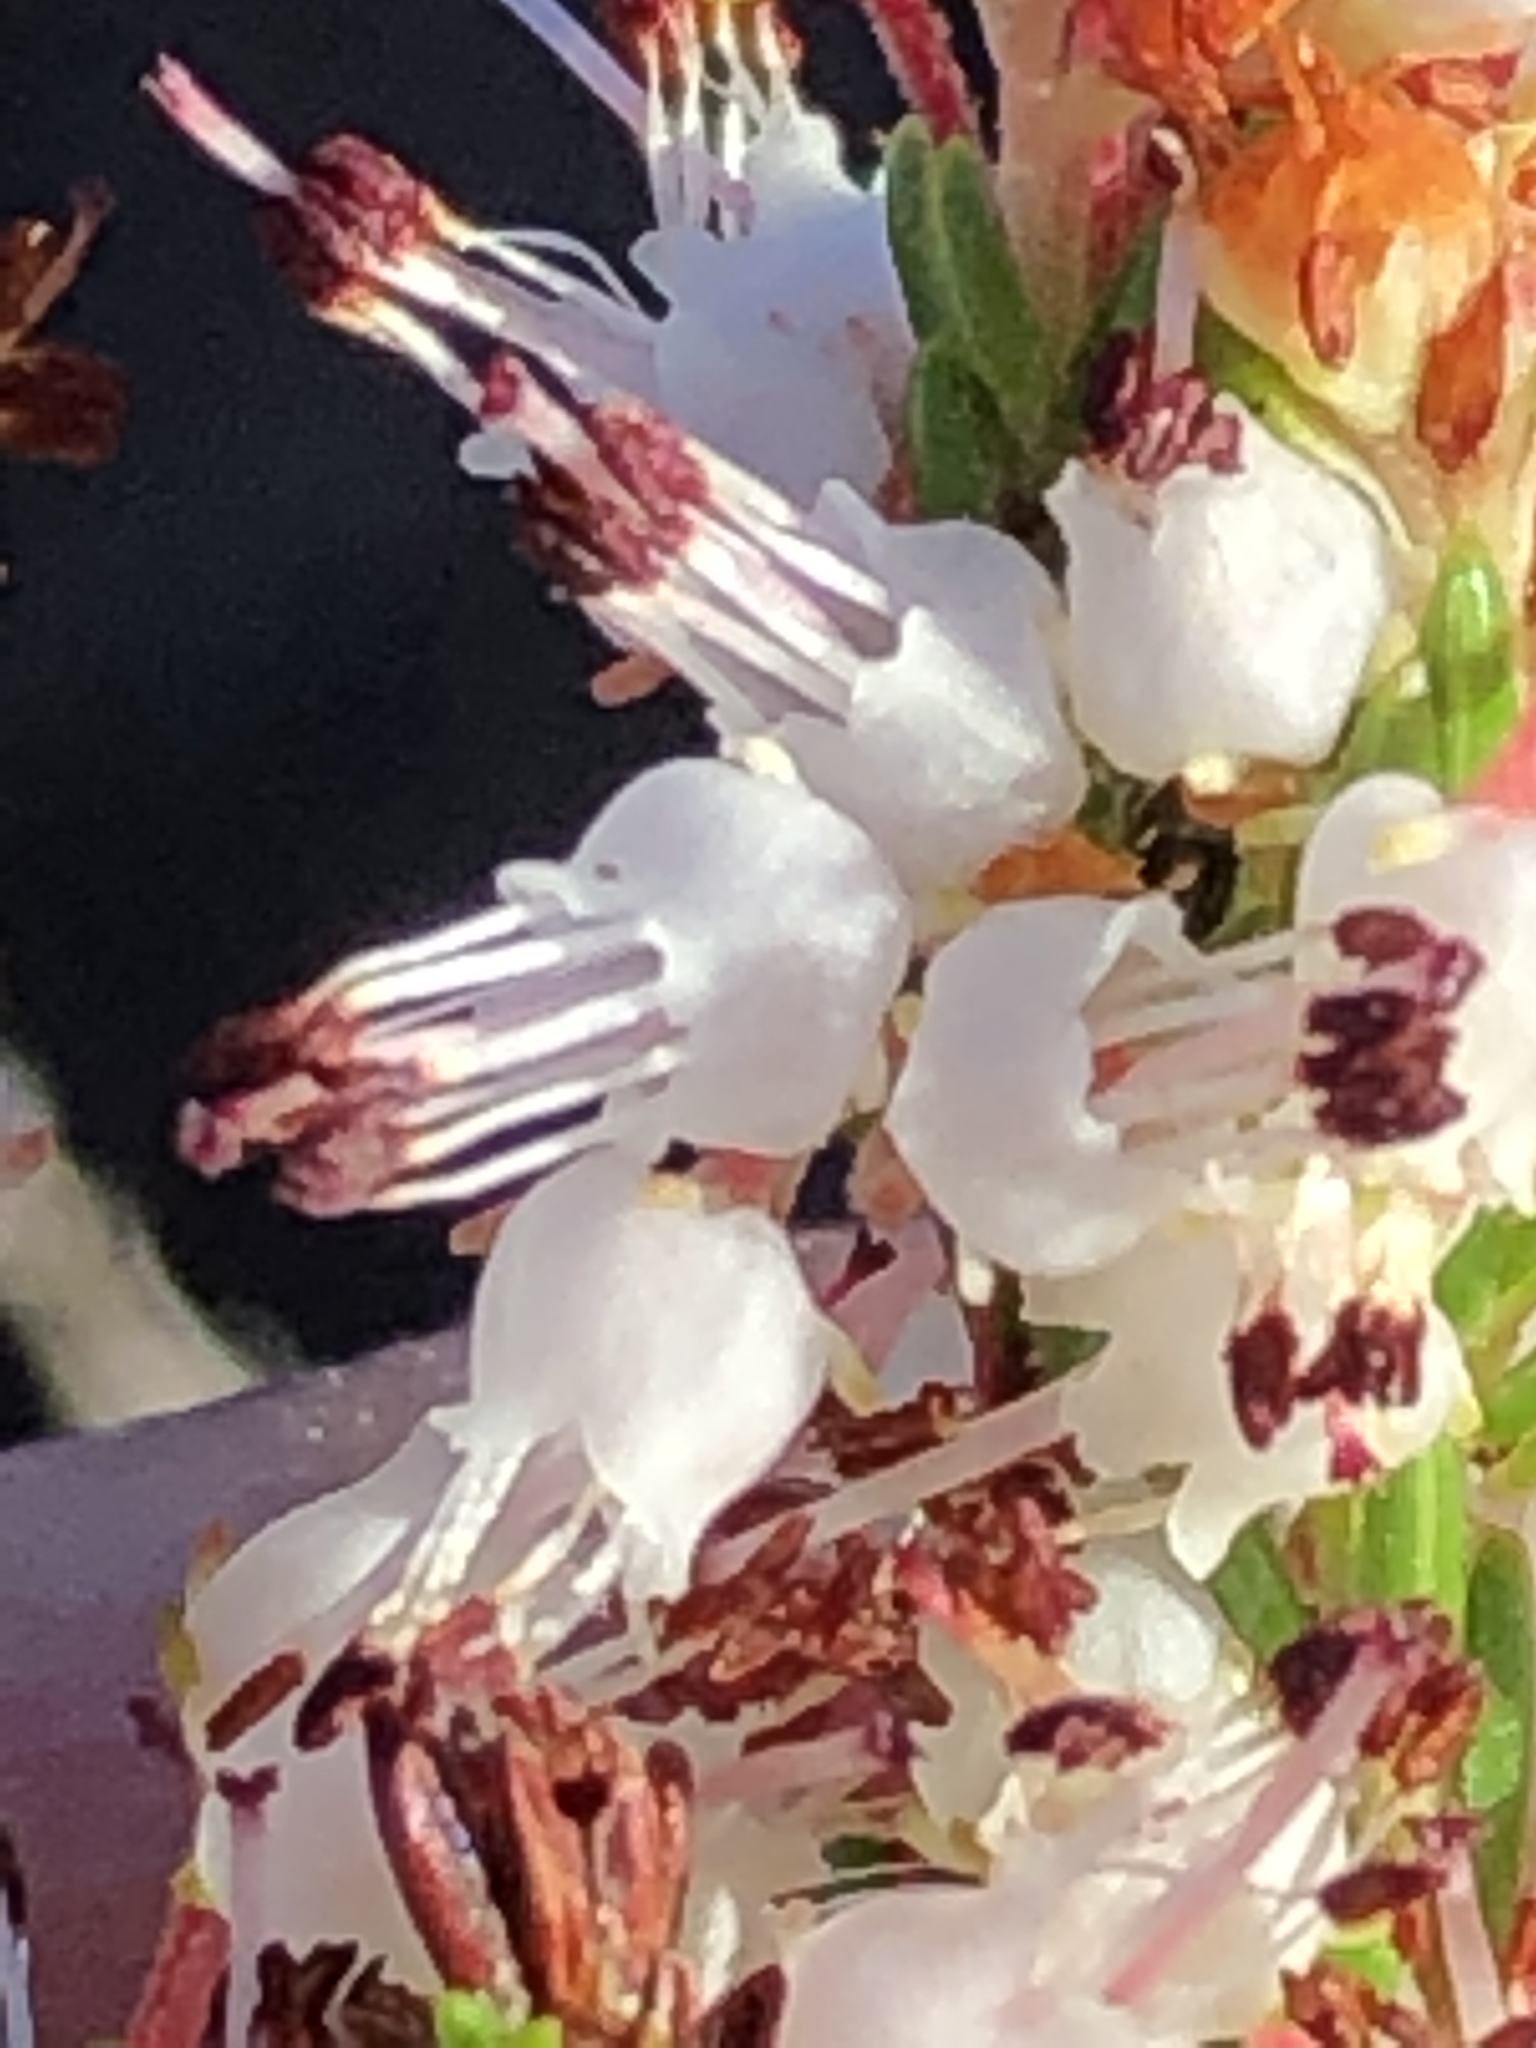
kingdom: Plantae
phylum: Tracheophyta
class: Magnoliopsida
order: Ericales
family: Ericaceae
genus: Erica
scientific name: Erica demissa
